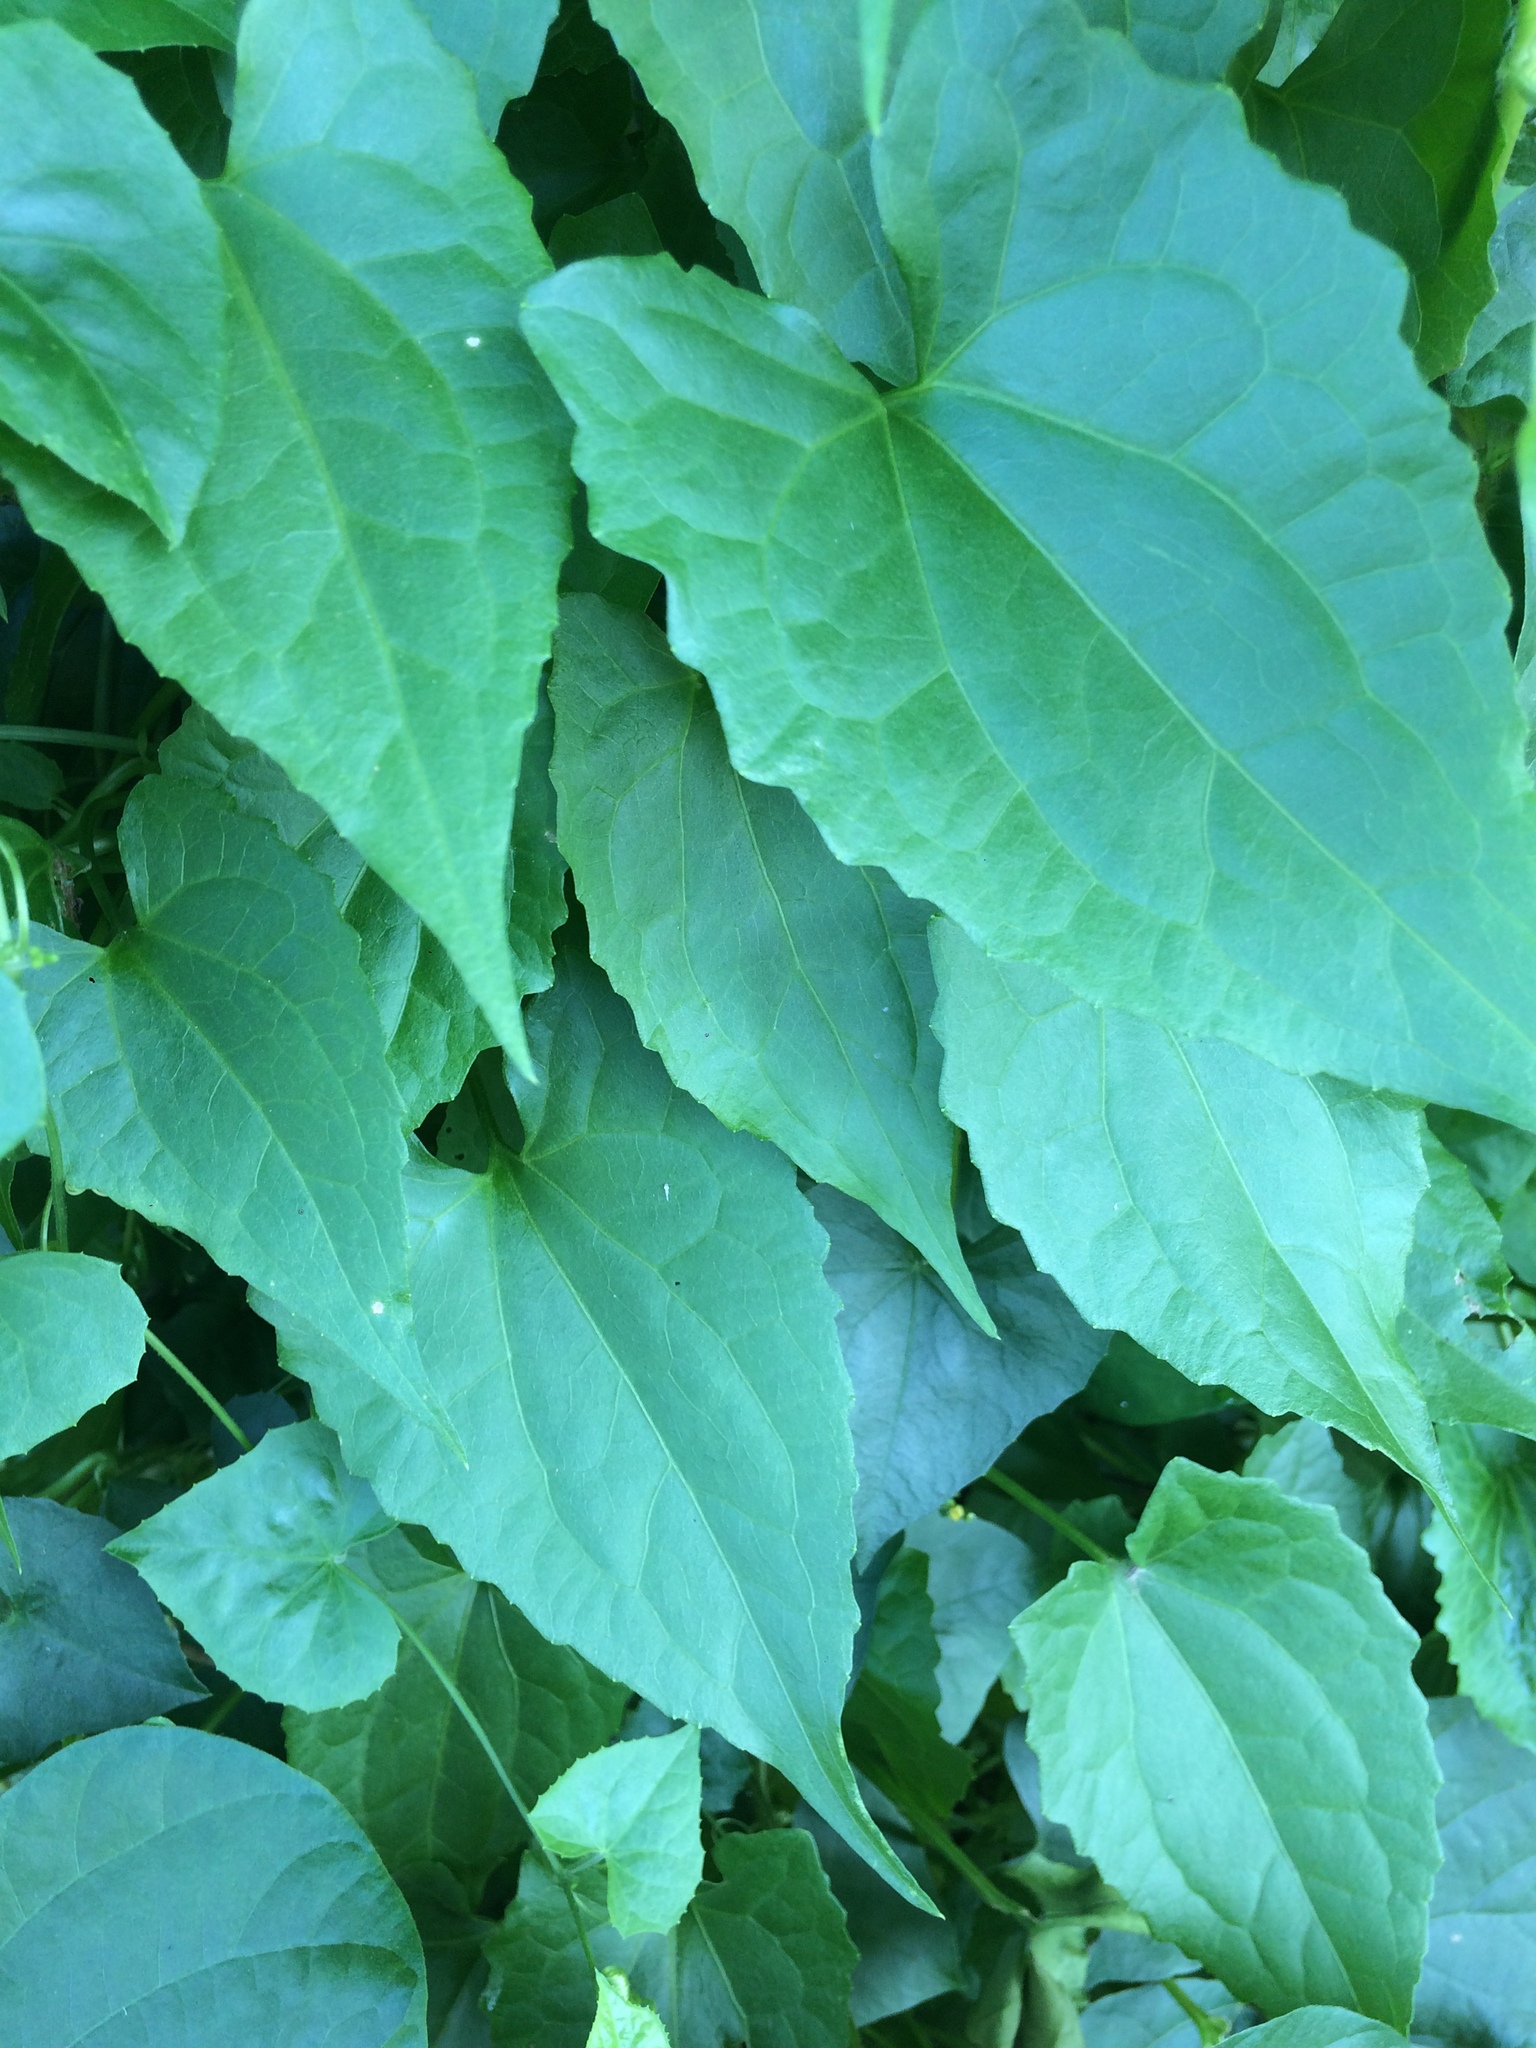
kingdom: Plantae
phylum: Tracheophyta
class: Magnoliopsida
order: Asterales
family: Asteraceae
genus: Mikania
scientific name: Mikania micrantha
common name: Mile-a-minute
